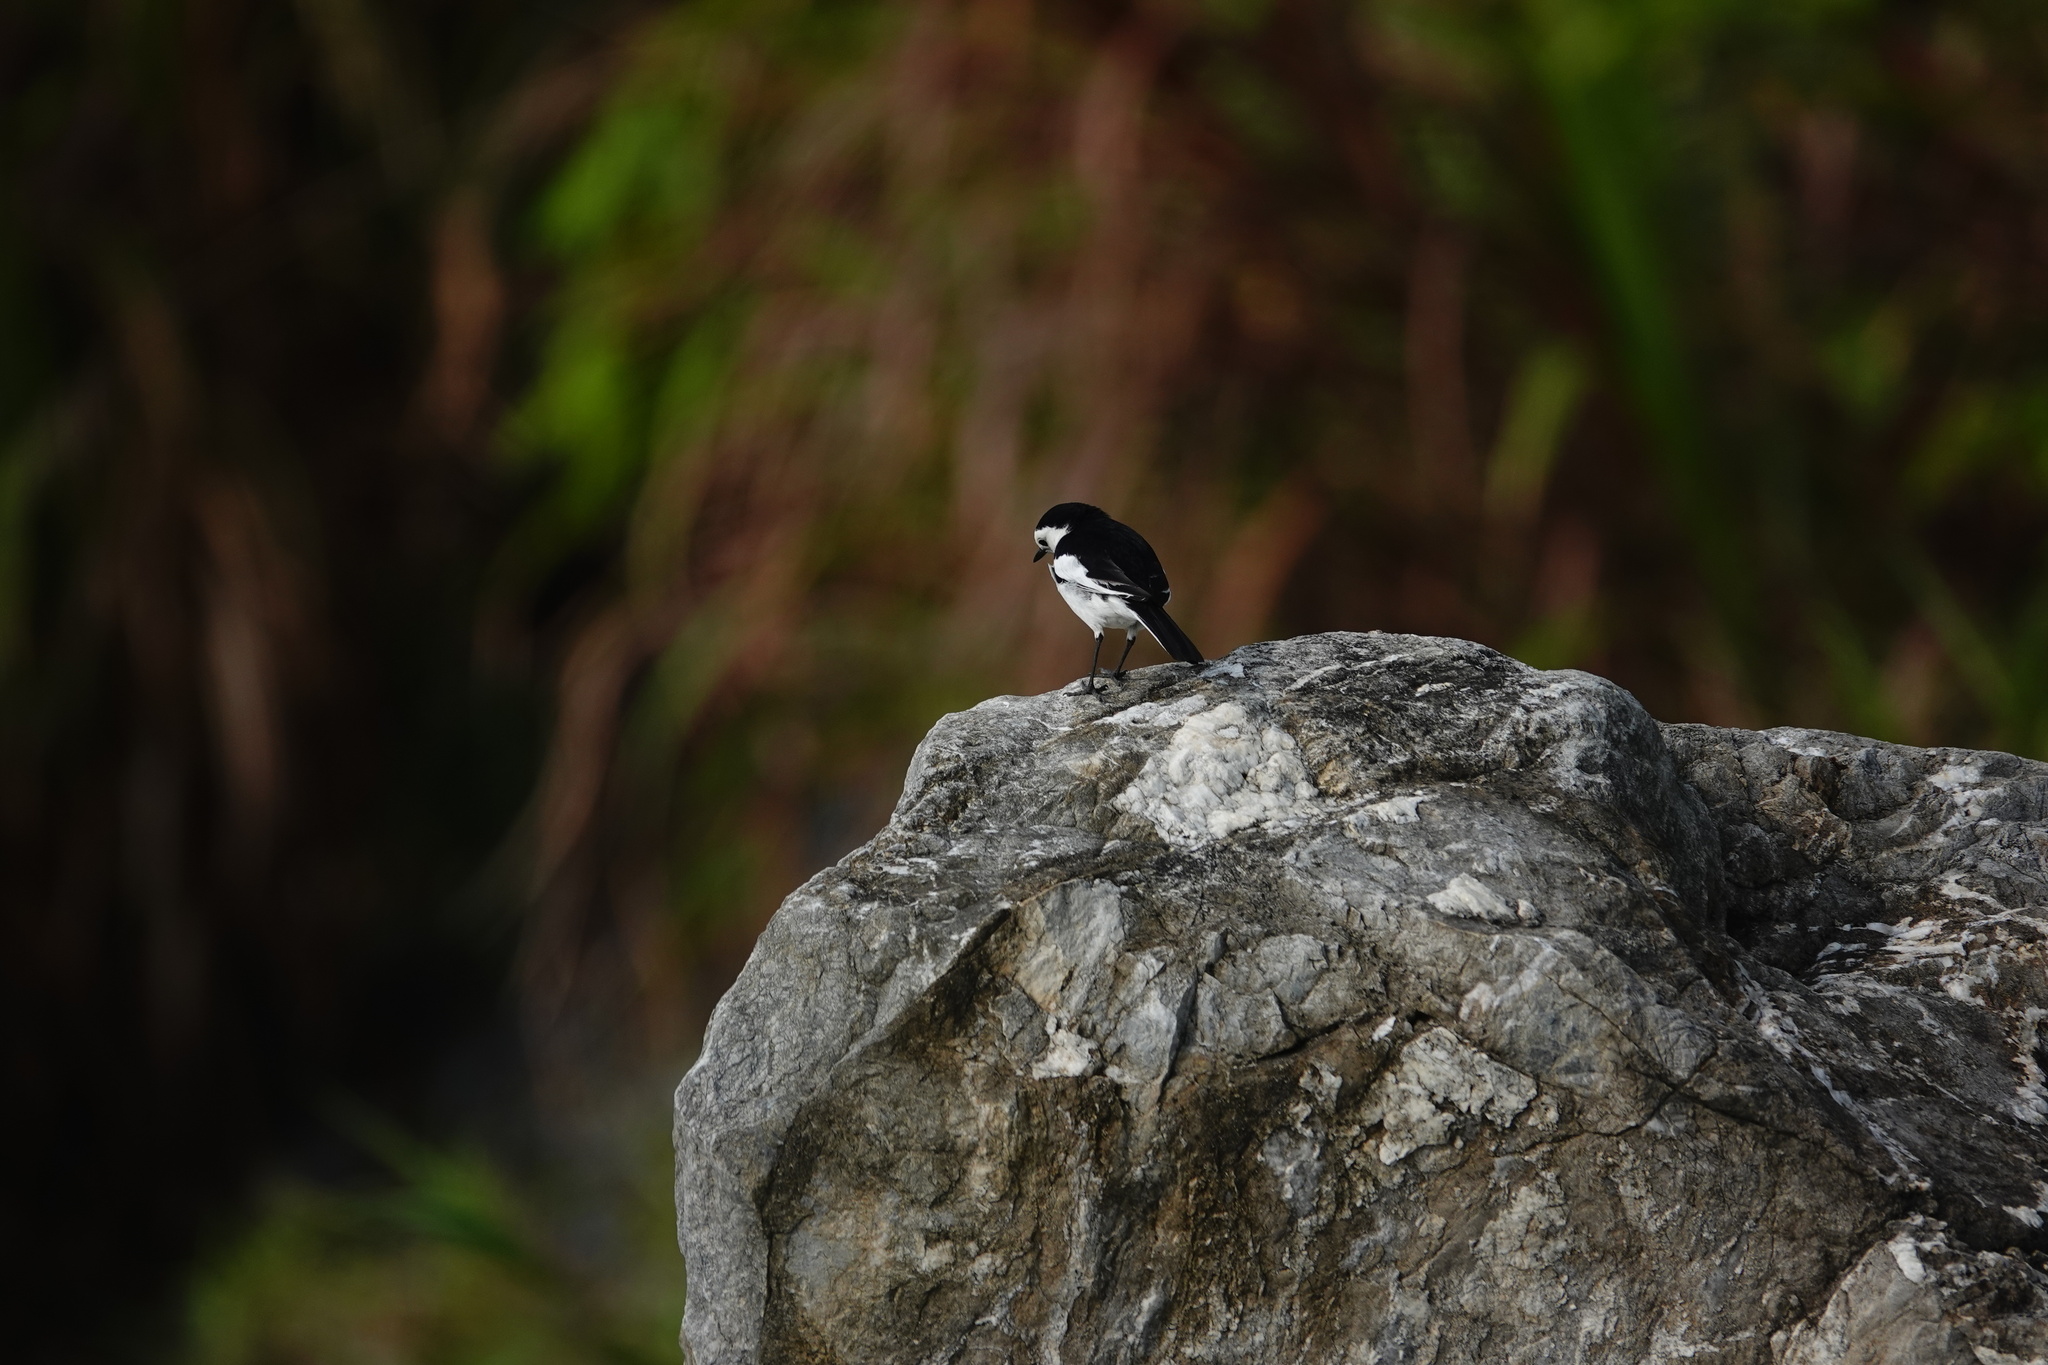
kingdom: Animalia
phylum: Chordata
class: Aves
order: Passeriformes
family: Motacillidae
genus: Motacilla
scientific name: Motacilla alba
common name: White wagtail
